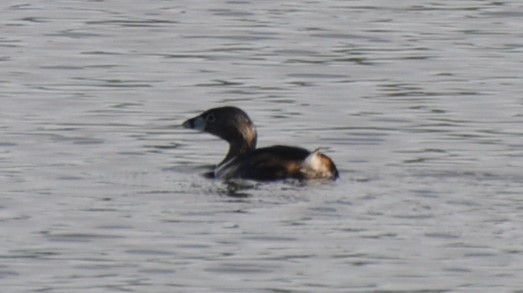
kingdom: Animalia
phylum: Chordata
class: Aves
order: Podicipediformes
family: Podicipedidae
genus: Podilymbus
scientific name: Podilymbus podiceps
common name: Pied-billed grebe
